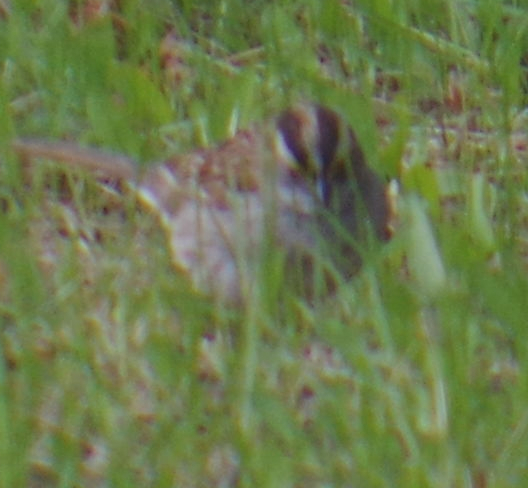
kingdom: Animalia
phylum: Chordata
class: Aves
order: Passeriformes
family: Passerellidae
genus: Zonotrichia
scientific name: Zonotrichia albicollis
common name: White-throated sparrow
